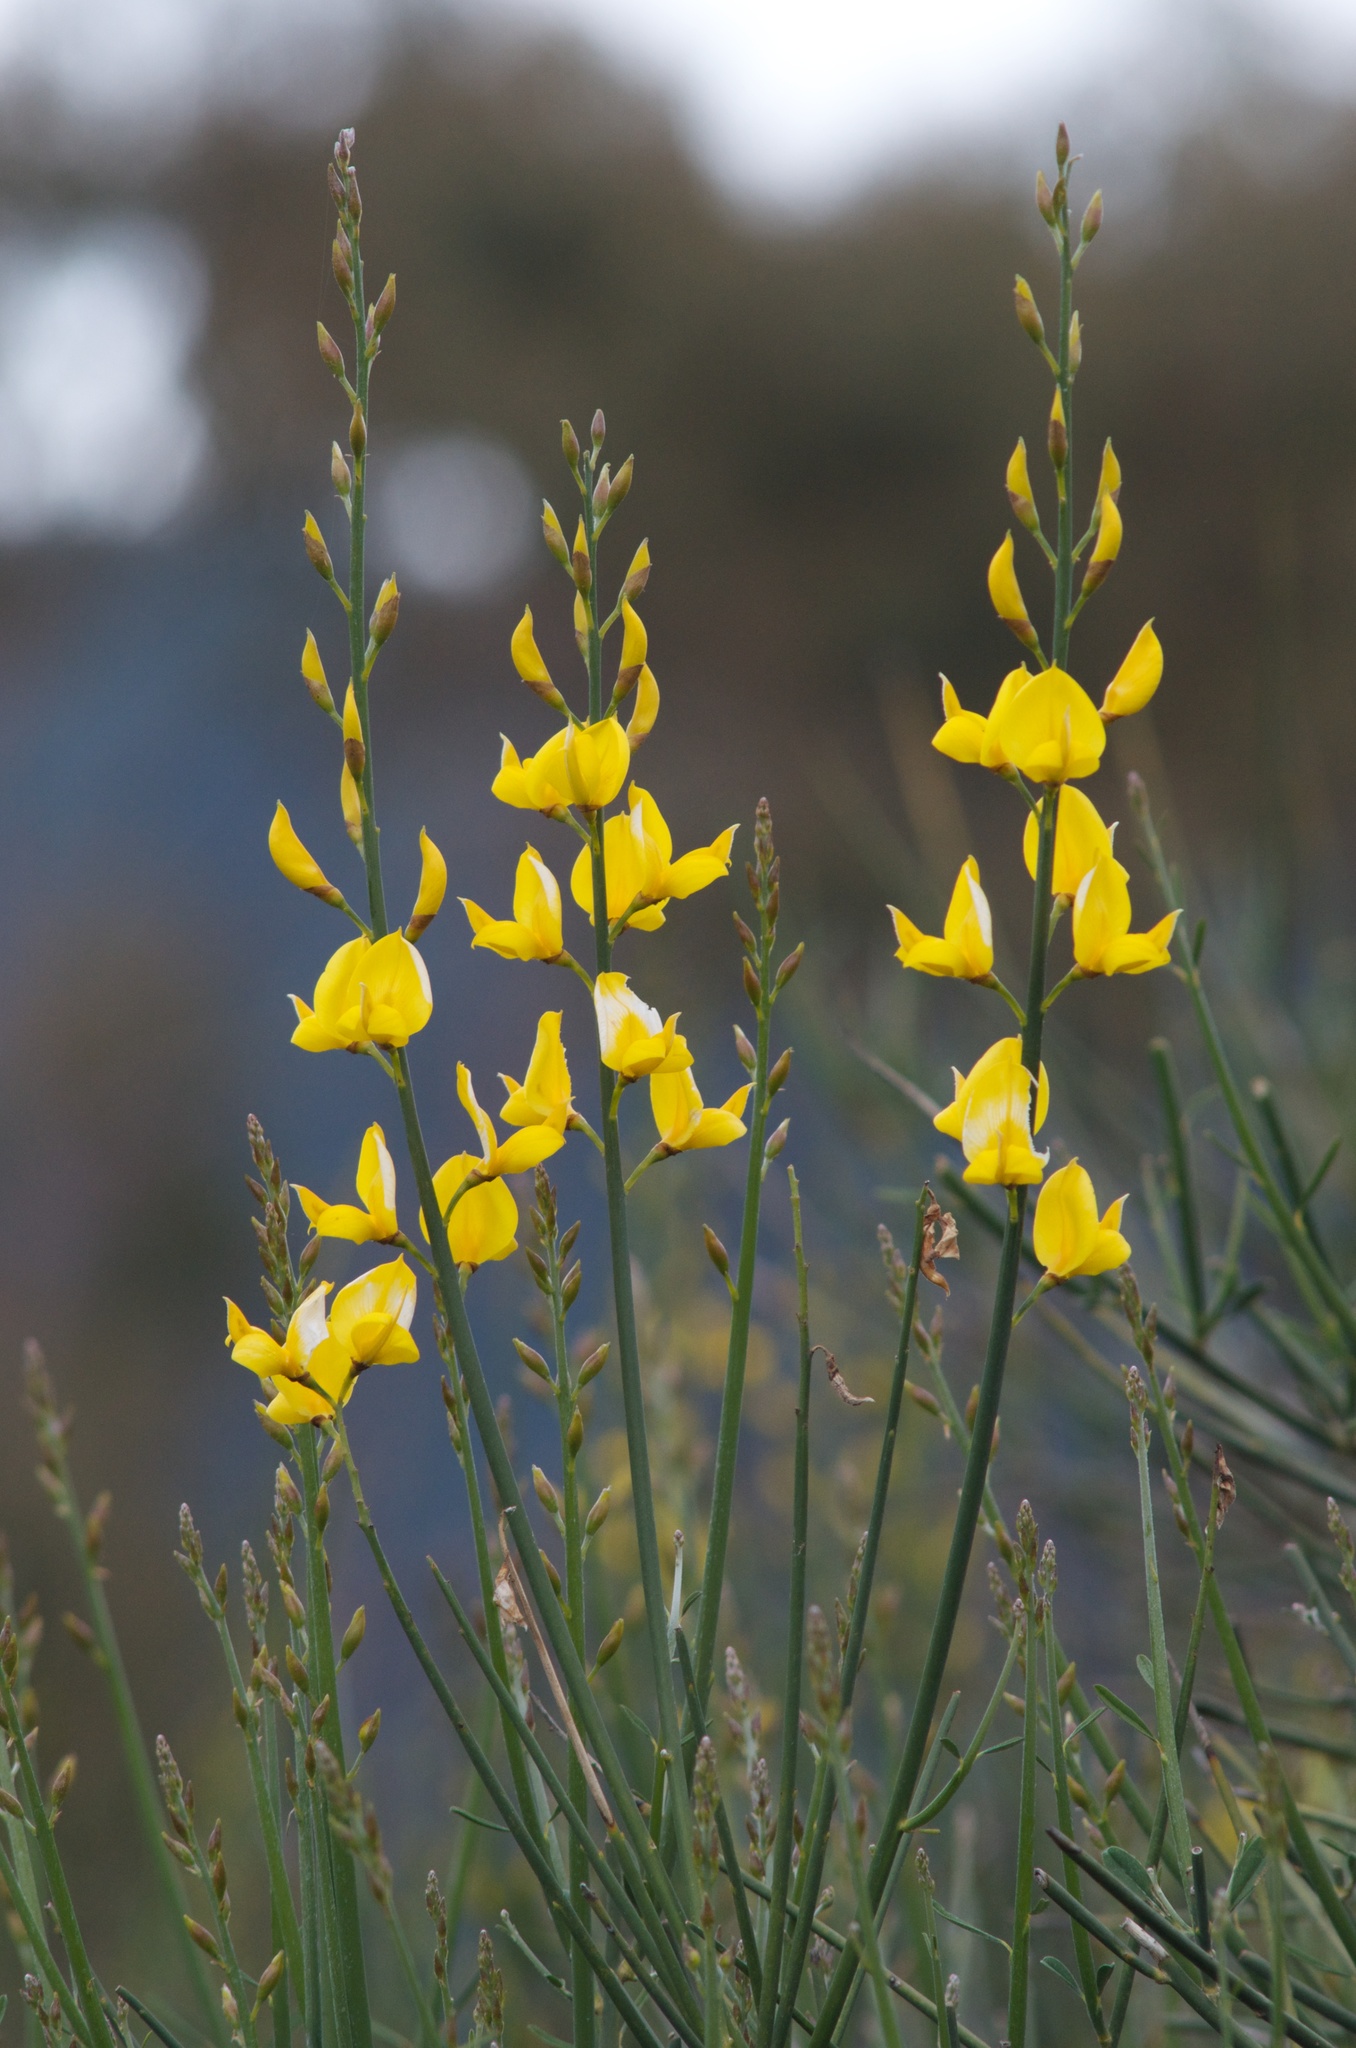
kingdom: Plantae
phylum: Tracheophyta
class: Magnoliopsida
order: Fabales
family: Fabaceae
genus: Spartium
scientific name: Spartium junceum
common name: Spanish broom
